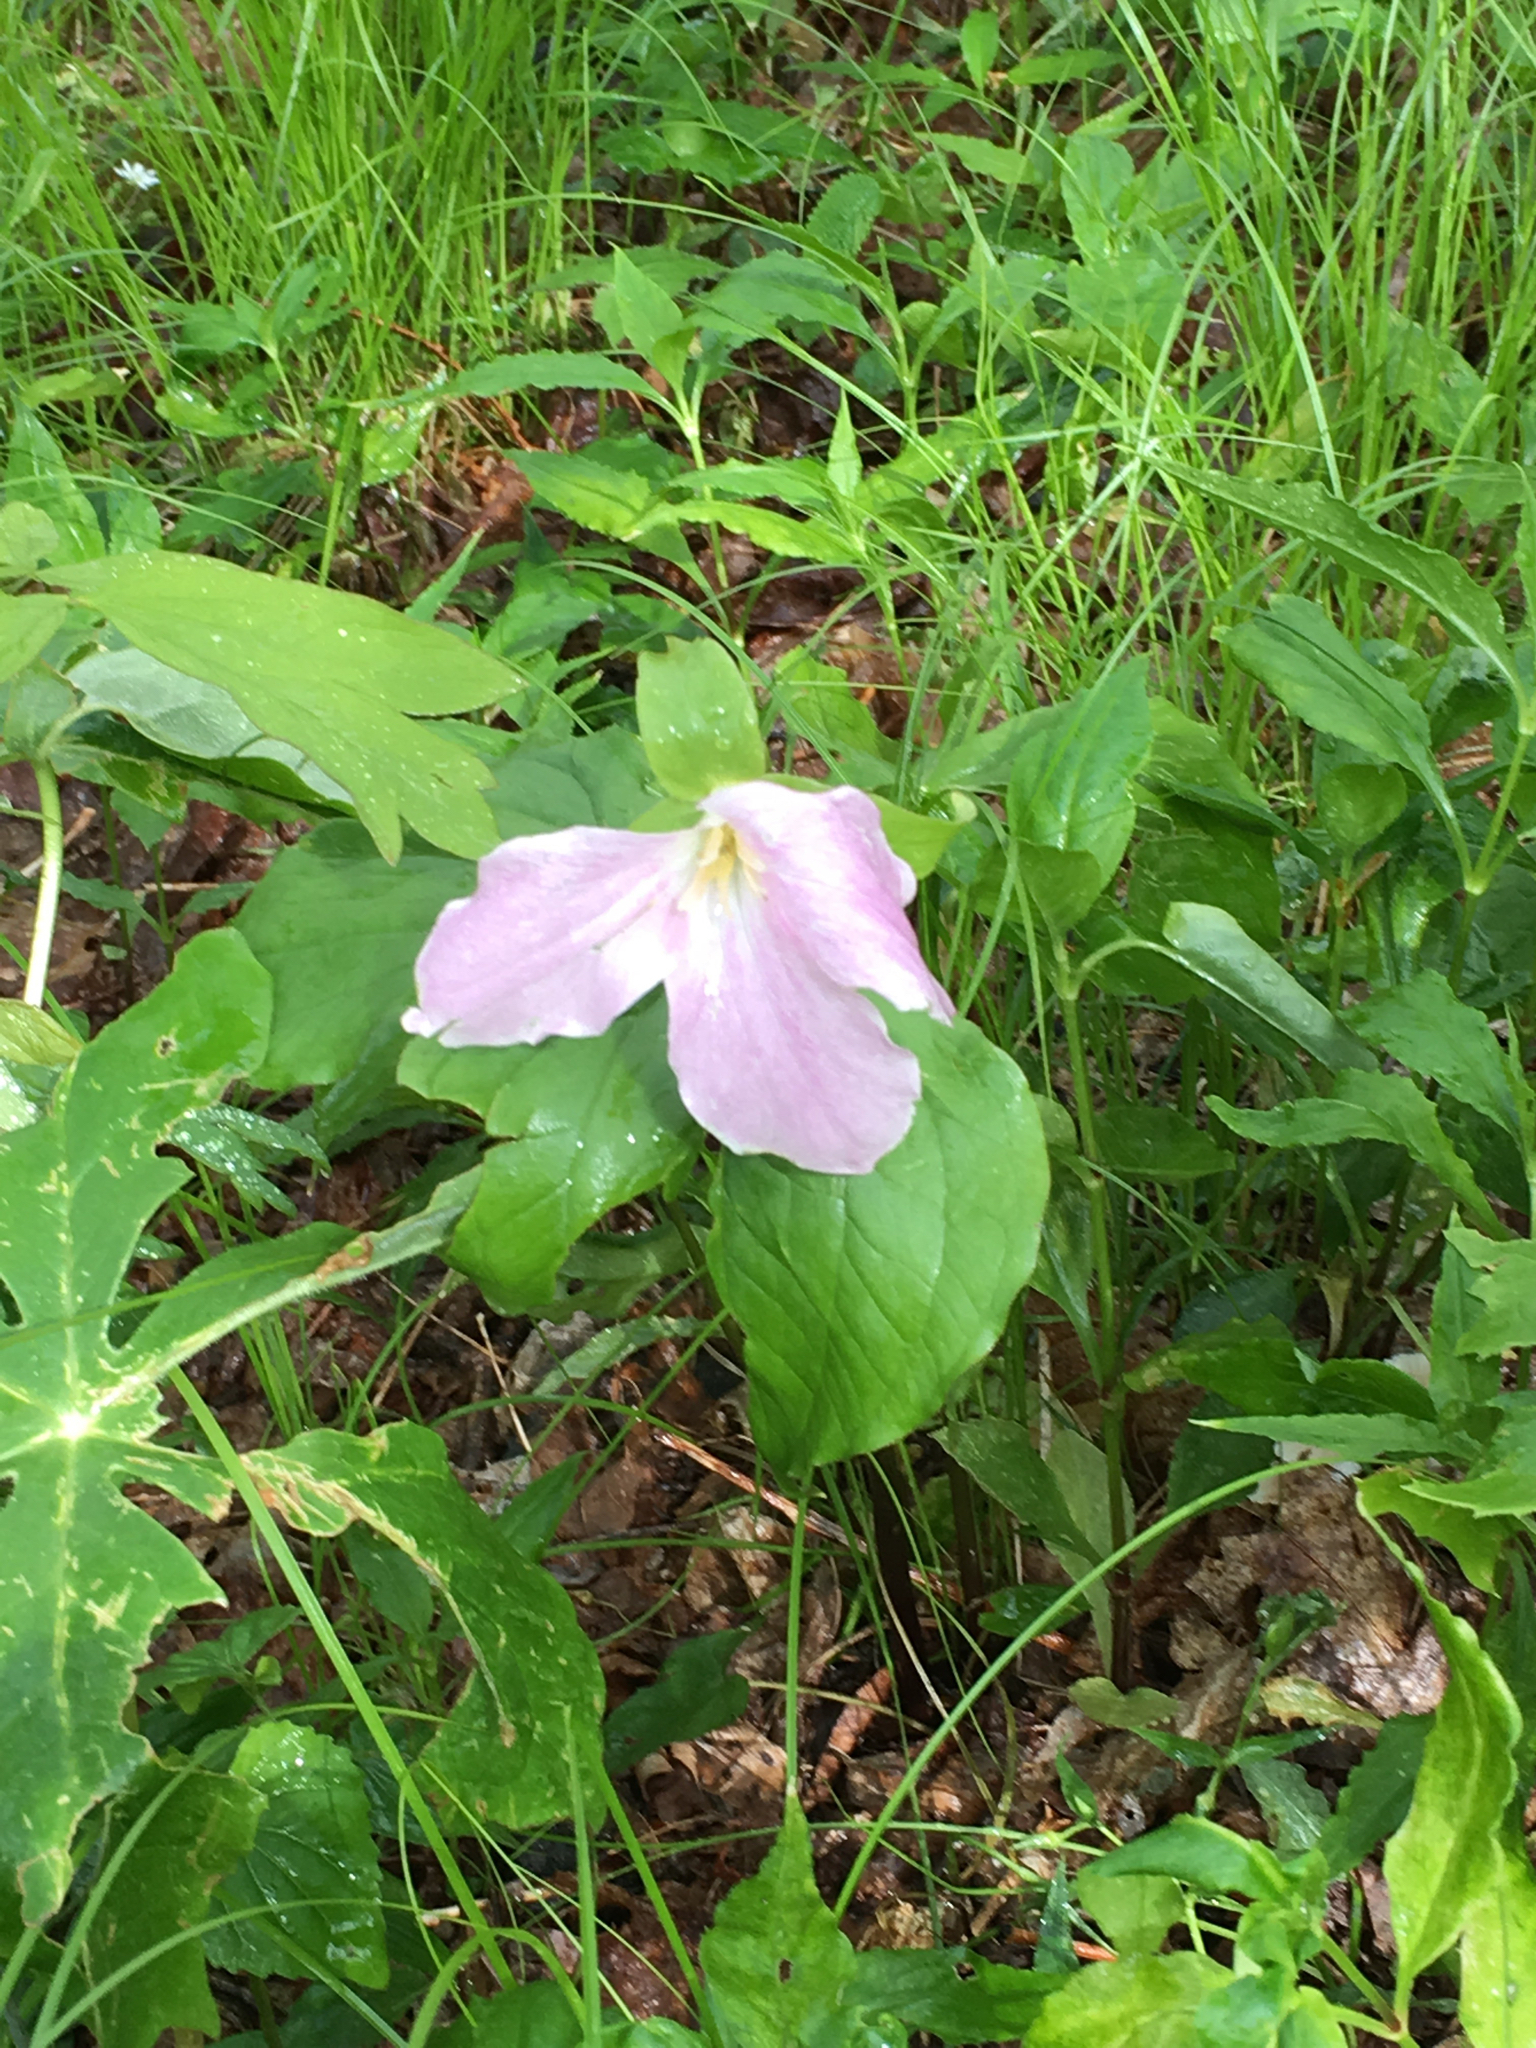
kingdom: Plantae
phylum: Tracheophyta
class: Liliopsida
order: Liliales
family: Melanthiaceae
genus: Trillium
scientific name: Trillium grandiflorum
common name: Great white trillium
